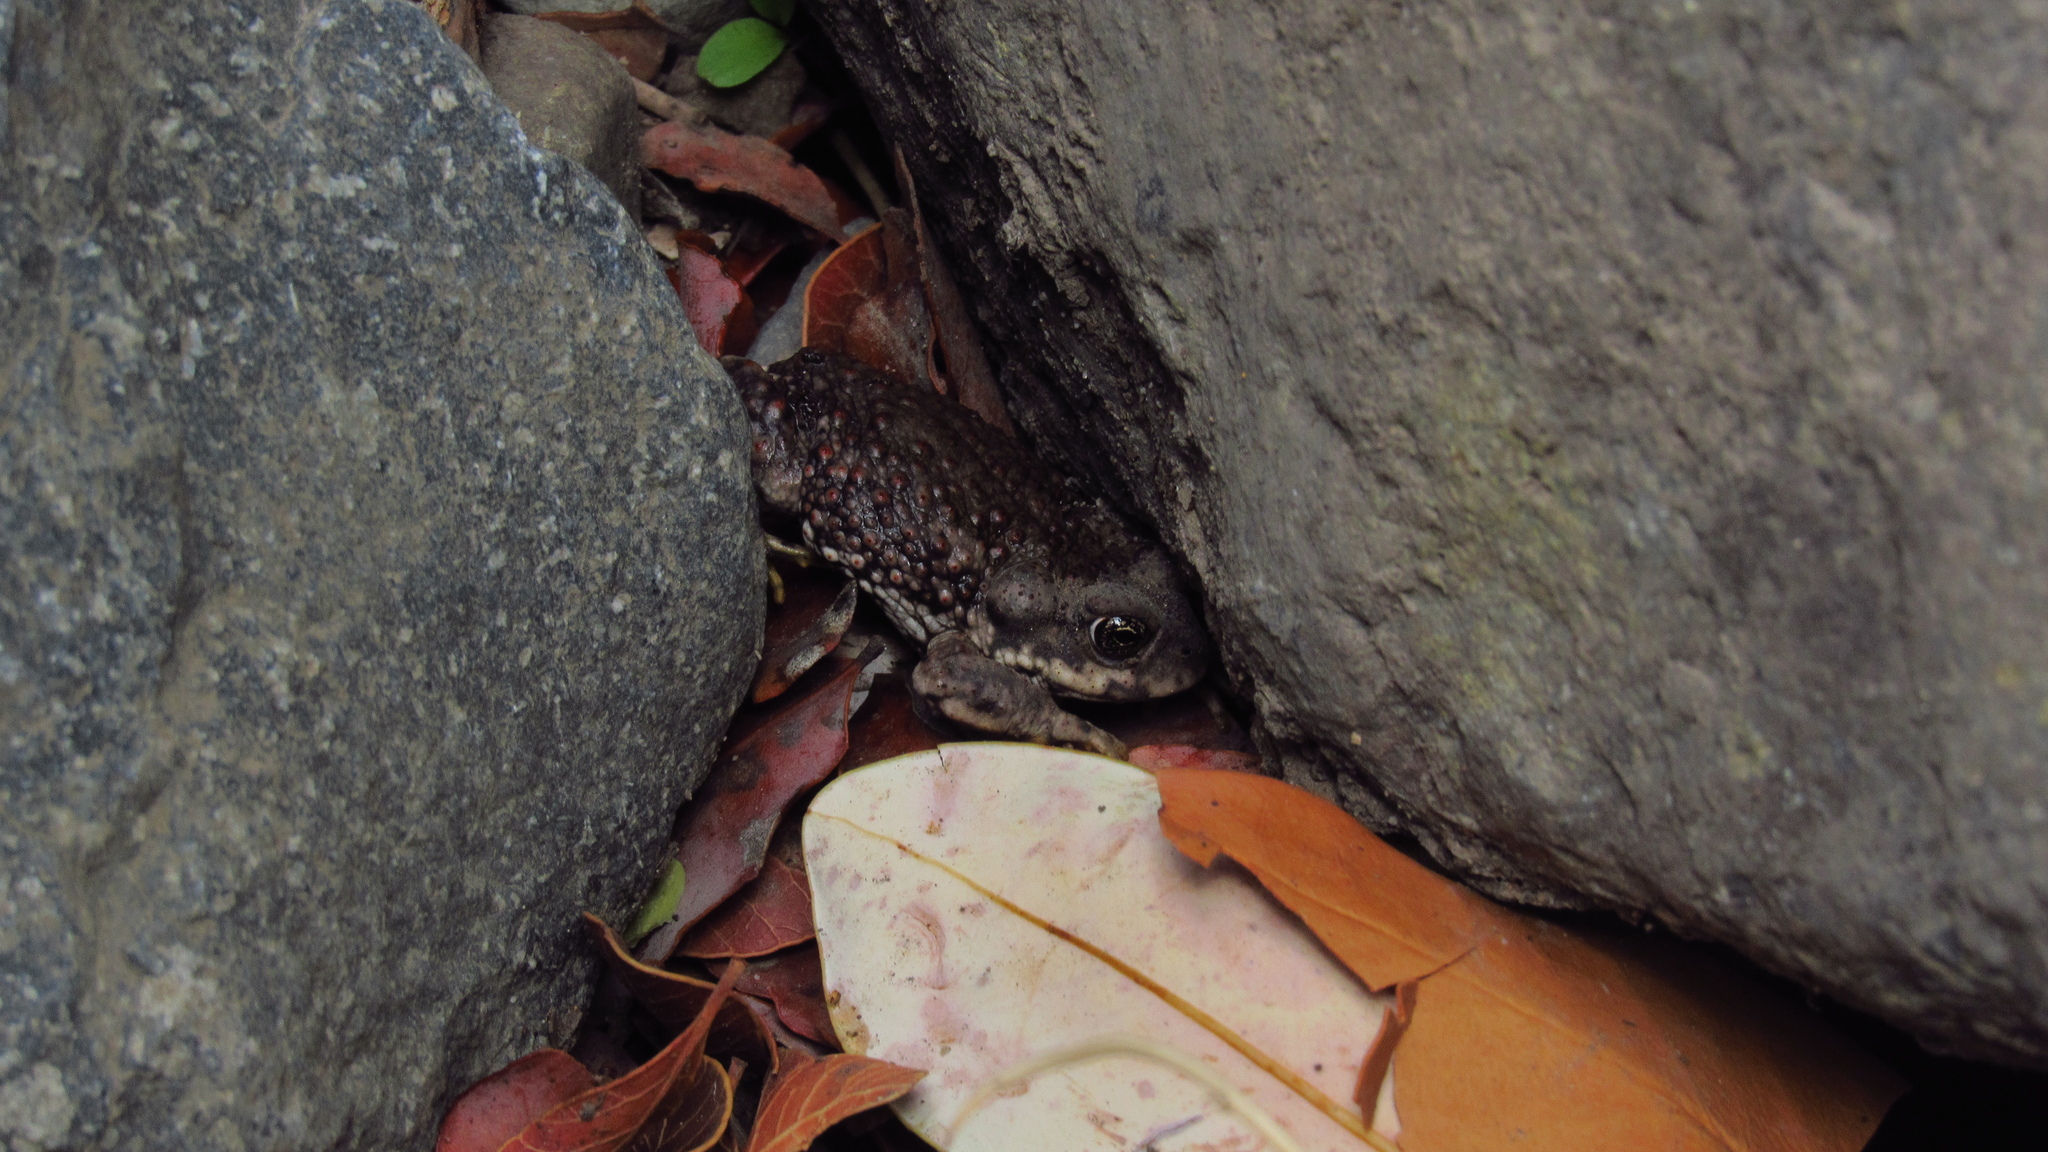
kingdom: Animalia
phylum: Chordata
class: Amphibia
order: Anura
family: Bufonidae
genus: Rhinella
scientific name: Rhinella arunco
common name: Concepcion toad
